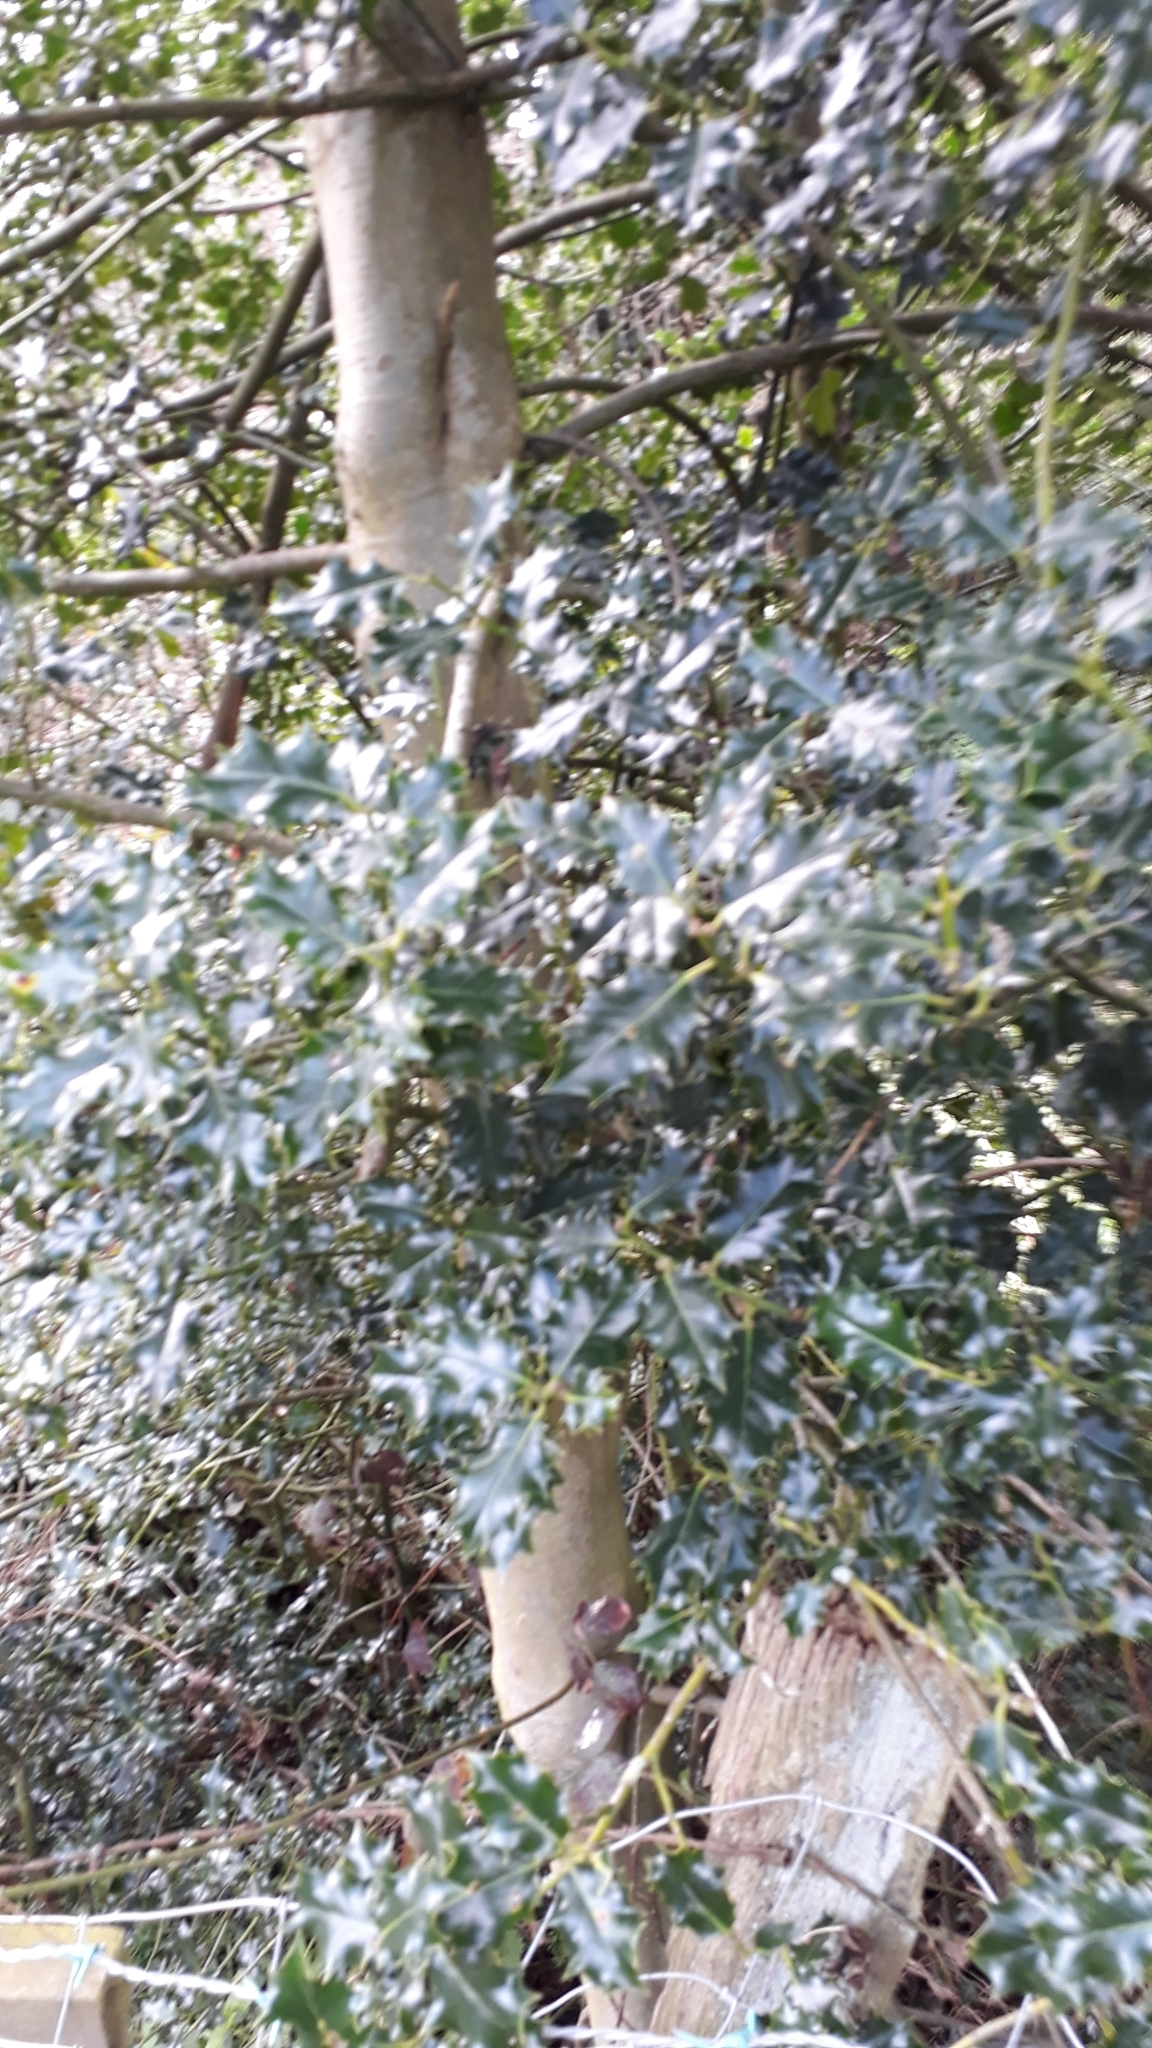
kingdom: Plantae
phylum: Tracheophyta
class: Magnoliopsida
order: Aquifoliales
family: Aquifoliaceae
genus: Ilex
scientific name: Ilex aquifolium
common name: English holly
